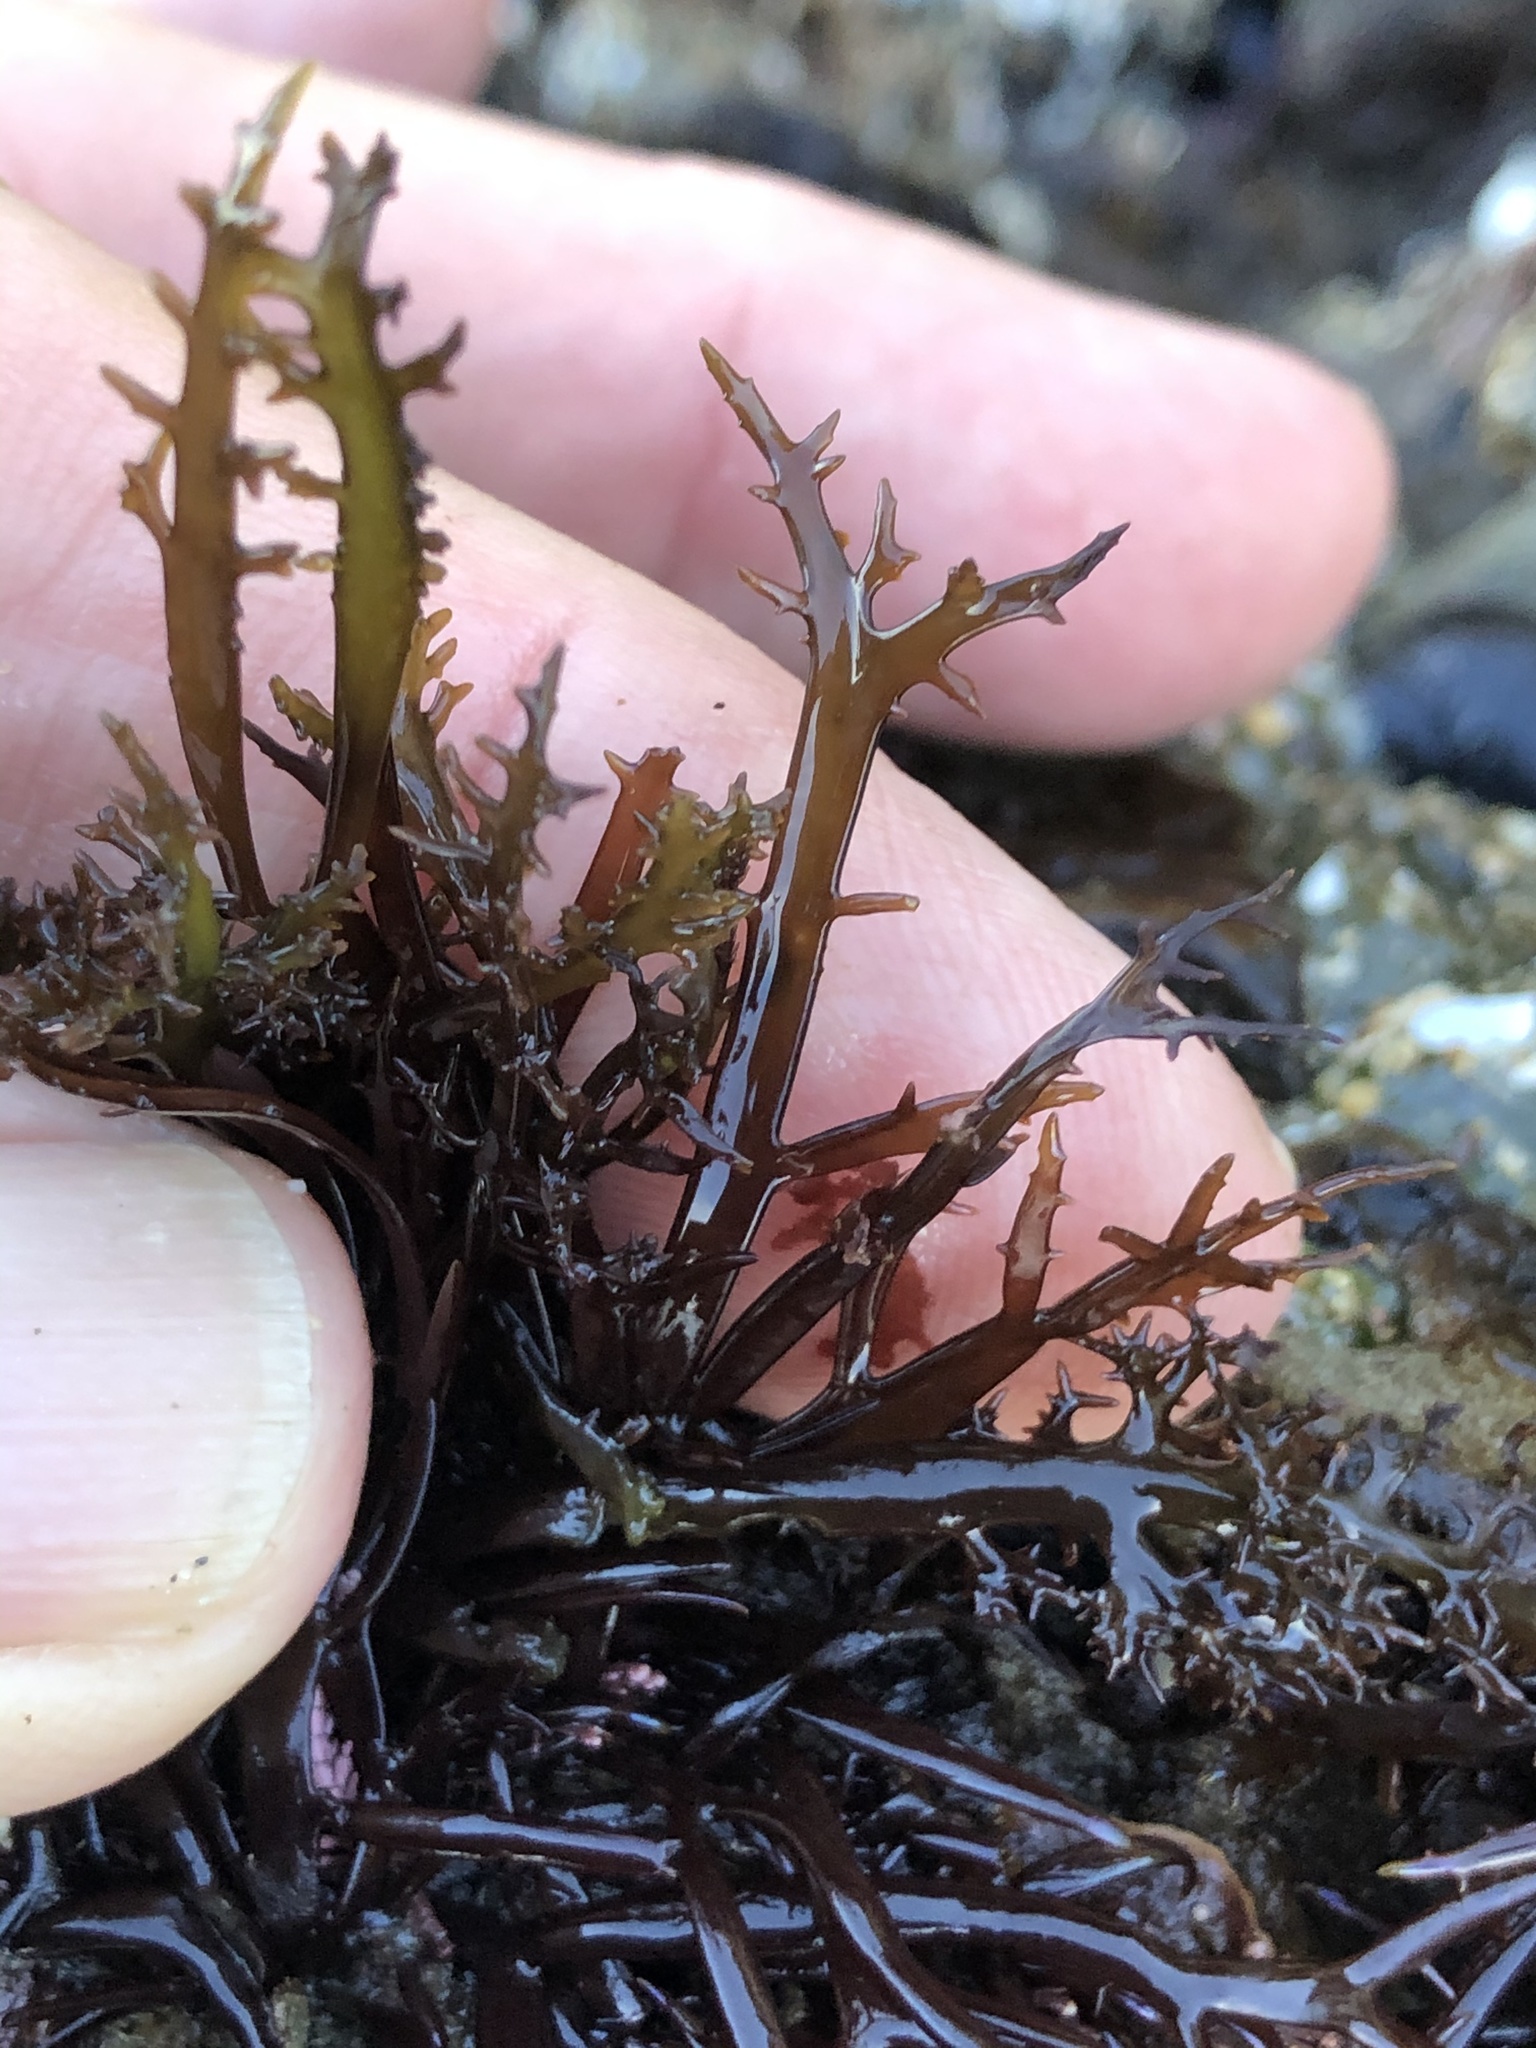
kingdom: Plantae
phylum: Rhodophyta
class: Florideophyceae
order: Gigartinales
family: Gigartinaceae
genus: Chondracanthus
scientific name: Chondracanthus canaliculatus
